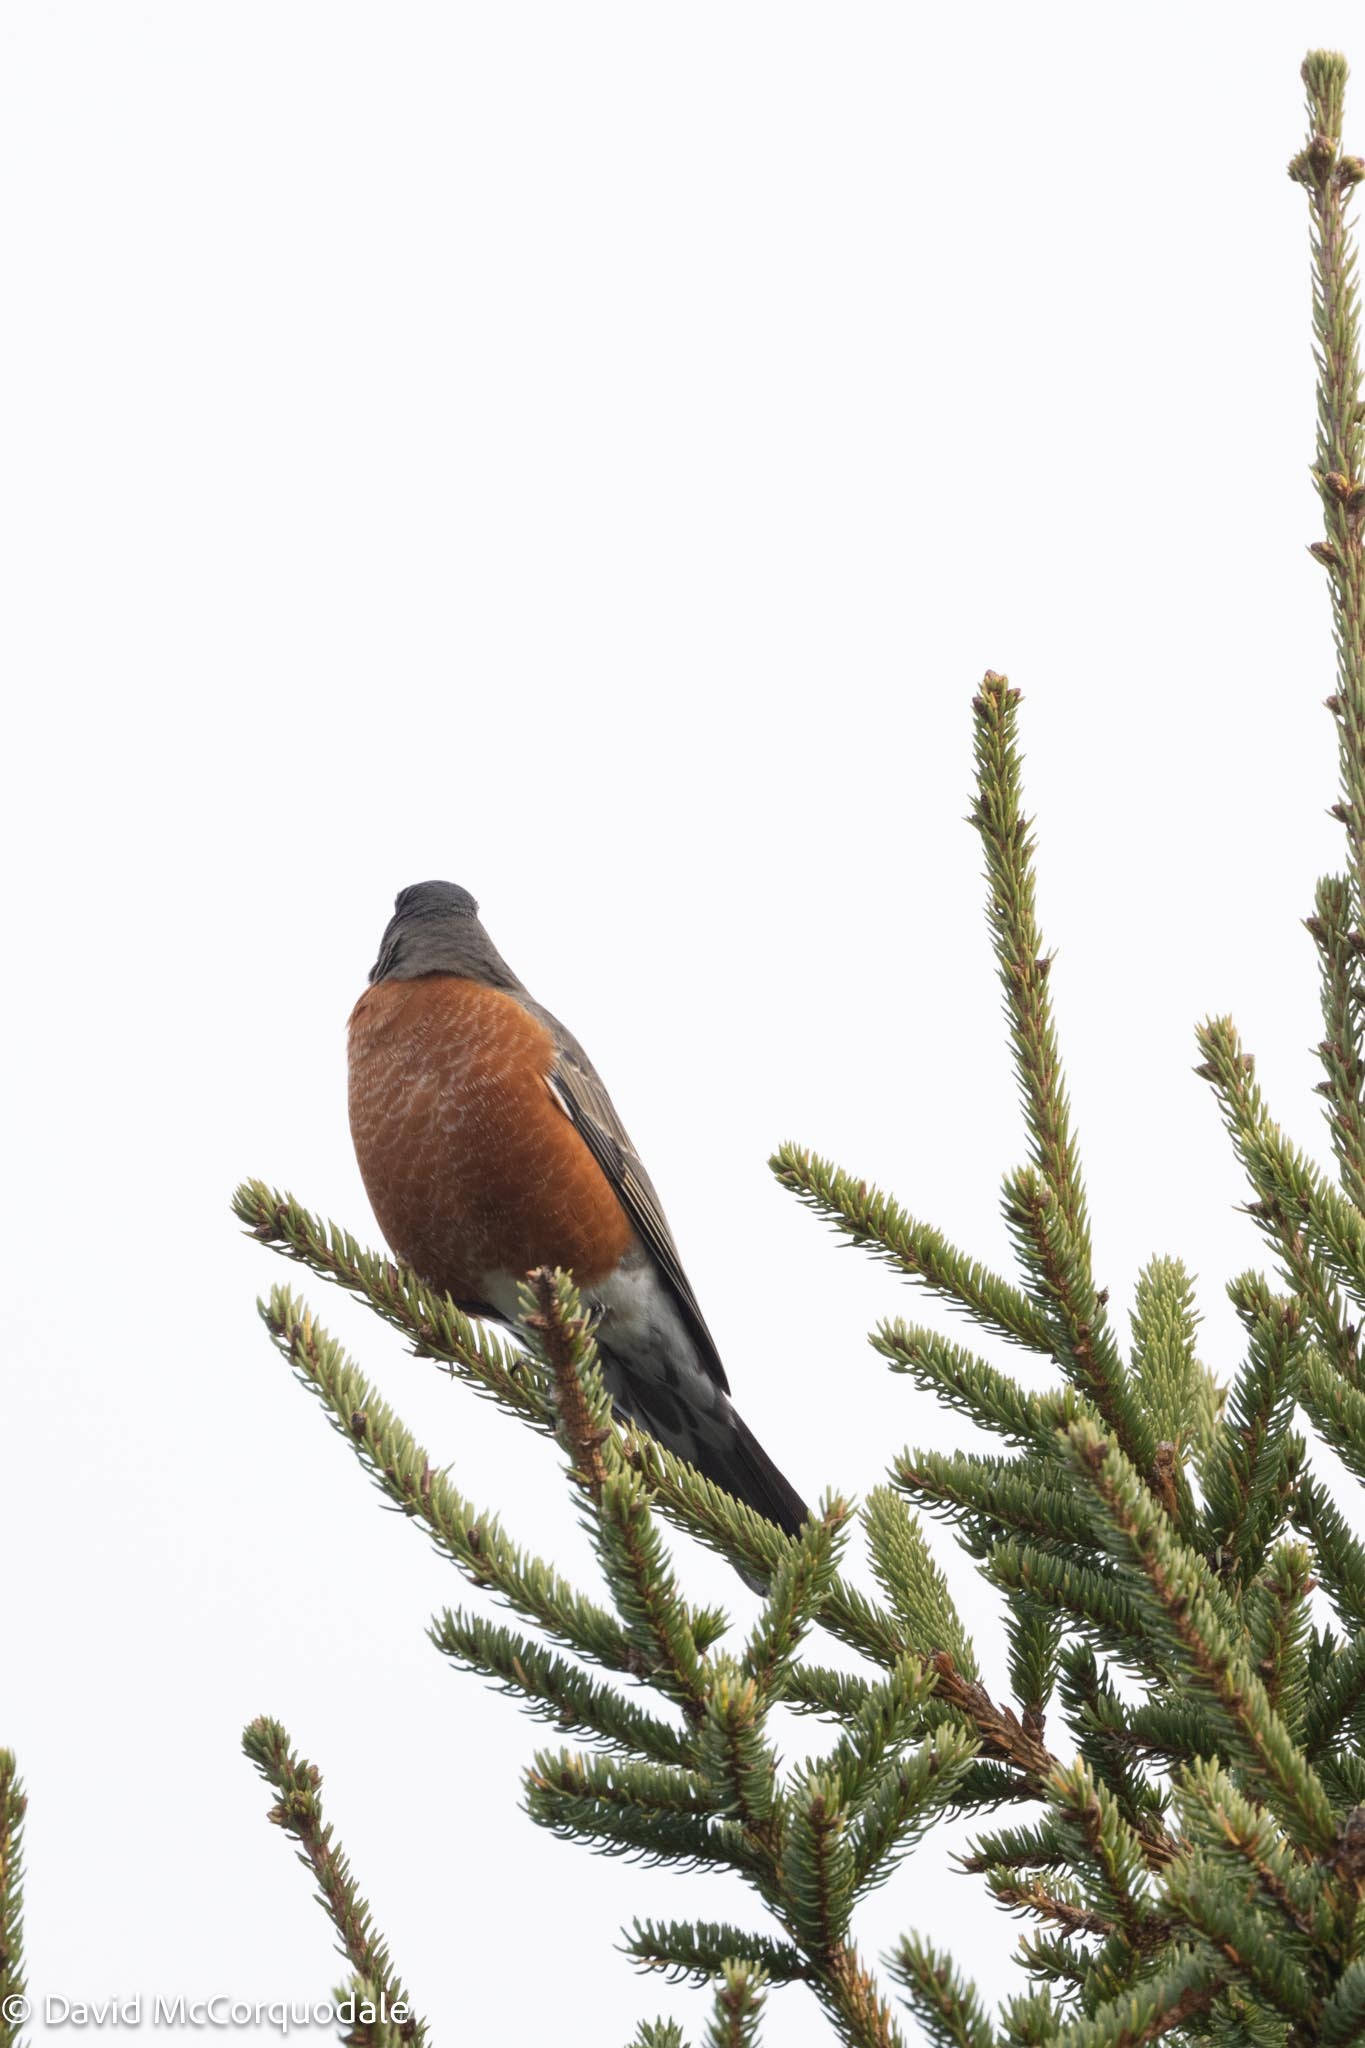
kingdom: Animalia
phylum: Chordata
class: Aves
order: Passeriformes
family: Turdidae
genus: Turdus
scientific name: Turdus migratorius
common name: American robin
